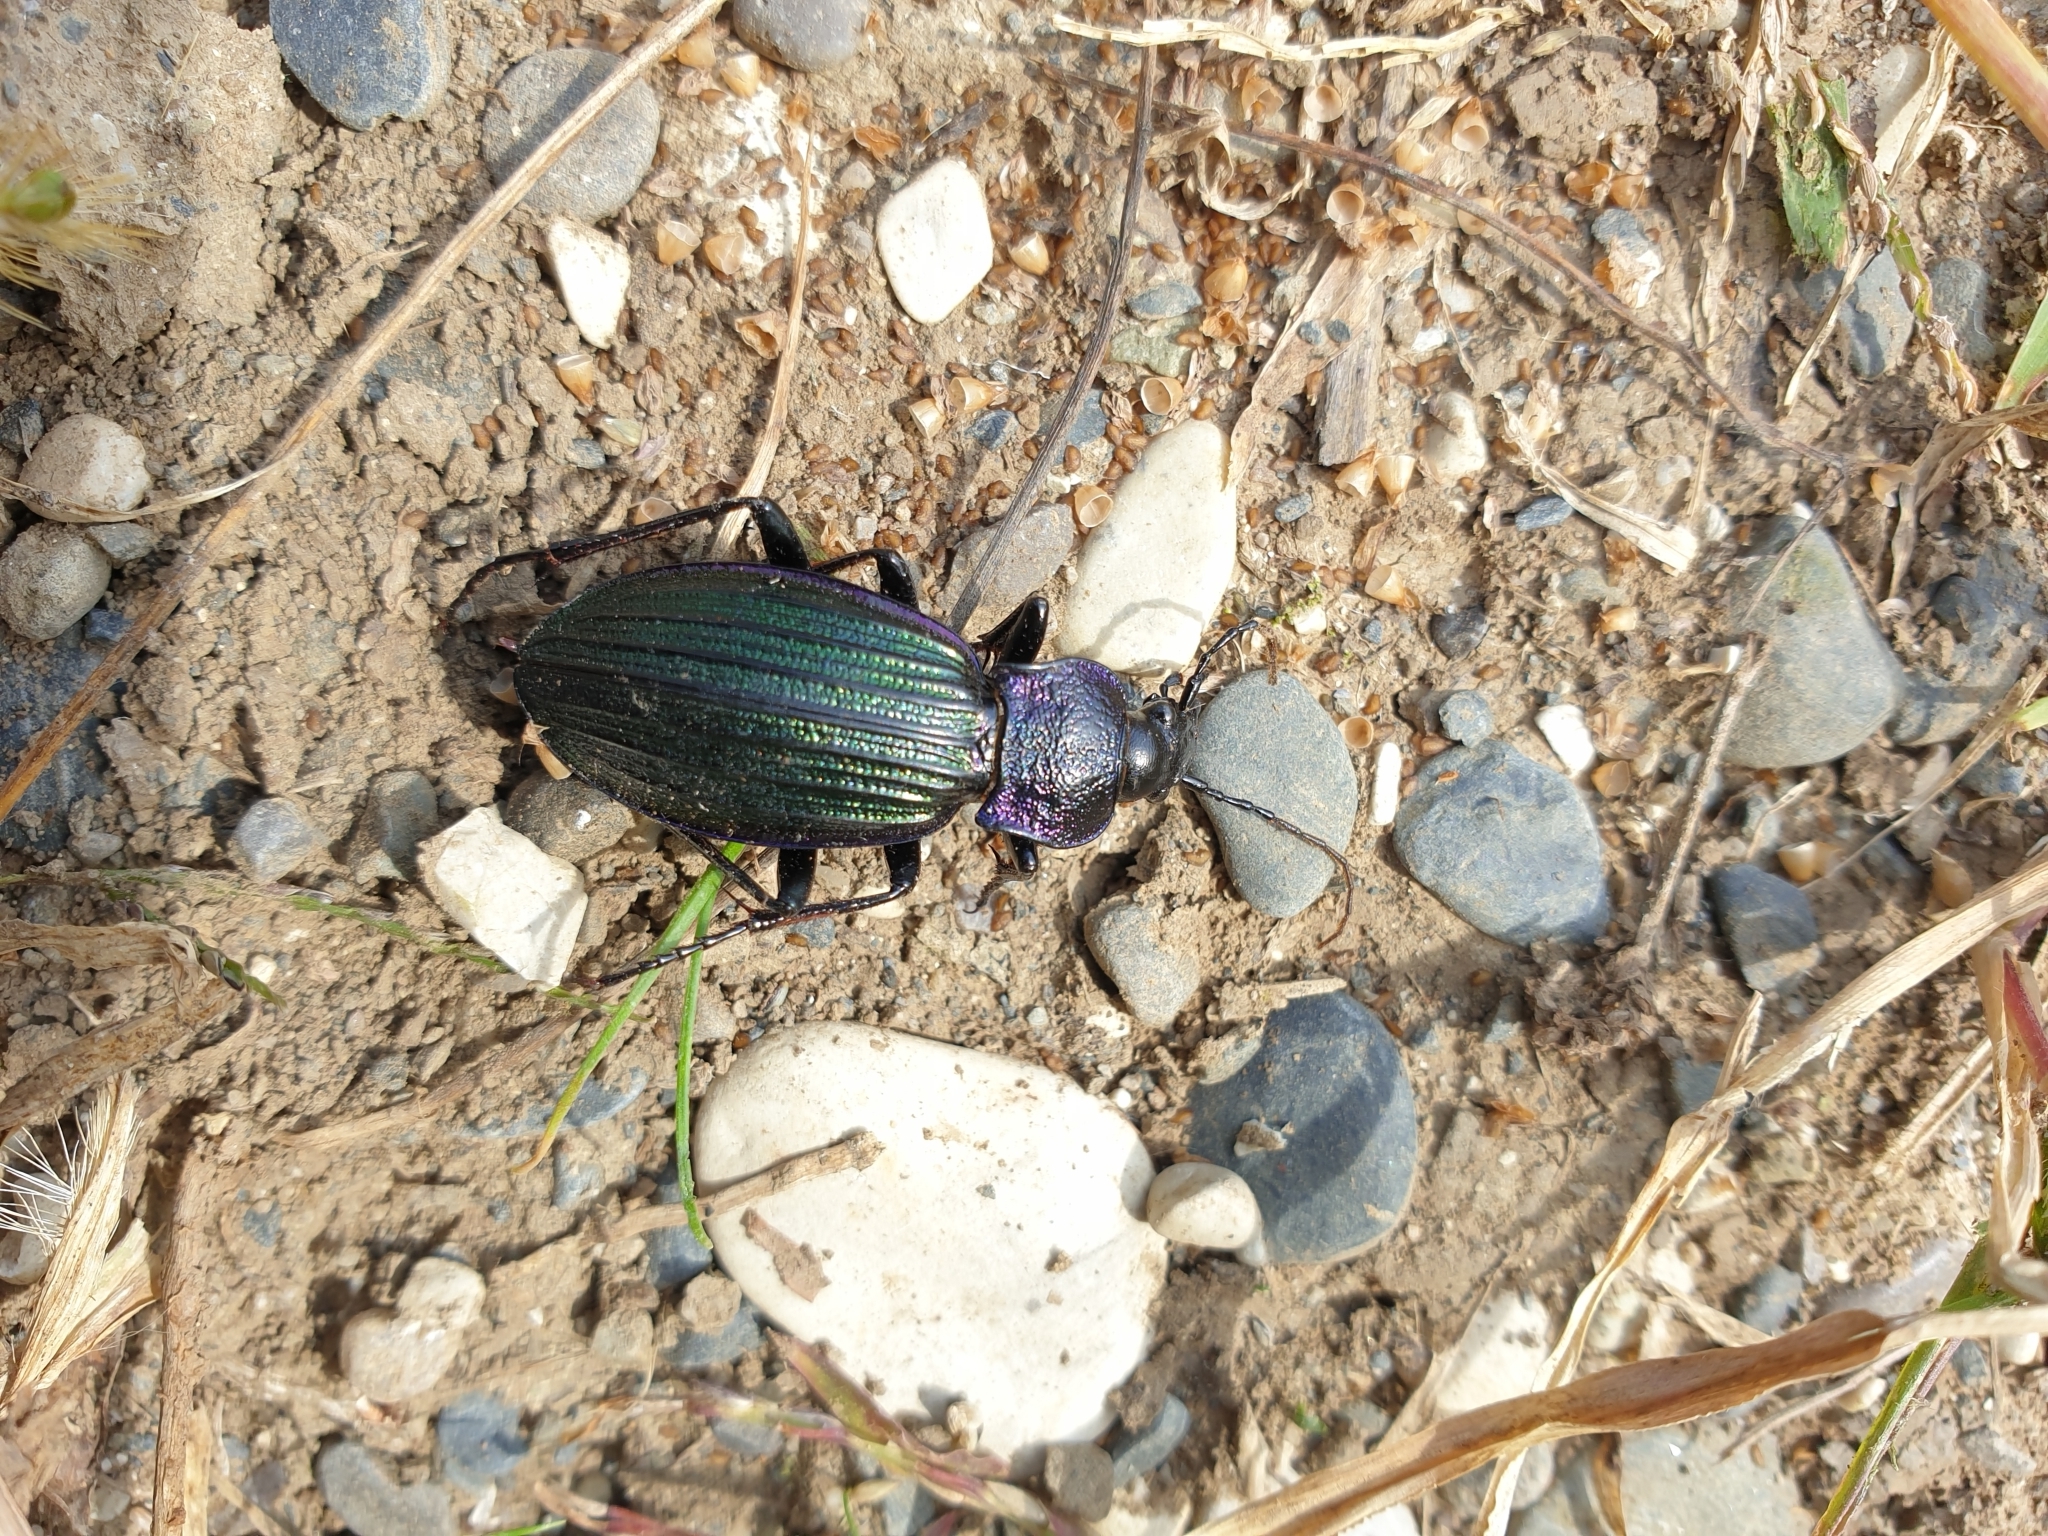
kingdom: Animalia
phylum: Arthropoda
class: Insecta
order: Coleoptera
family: Carabidae
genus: Carabus
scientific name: Carabus exaratus
